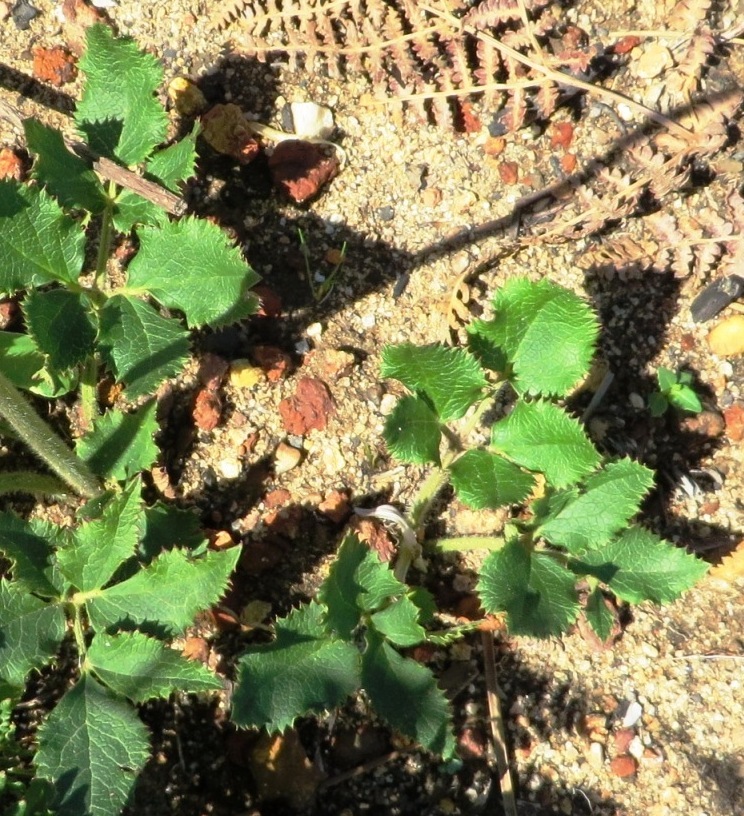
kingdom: Plantae
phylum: Tracheophyta
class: Magnoliopsida
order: Ranunculales
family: Ranunculaceae
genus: Knowltonia
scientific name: Knowltonia anemonoides
